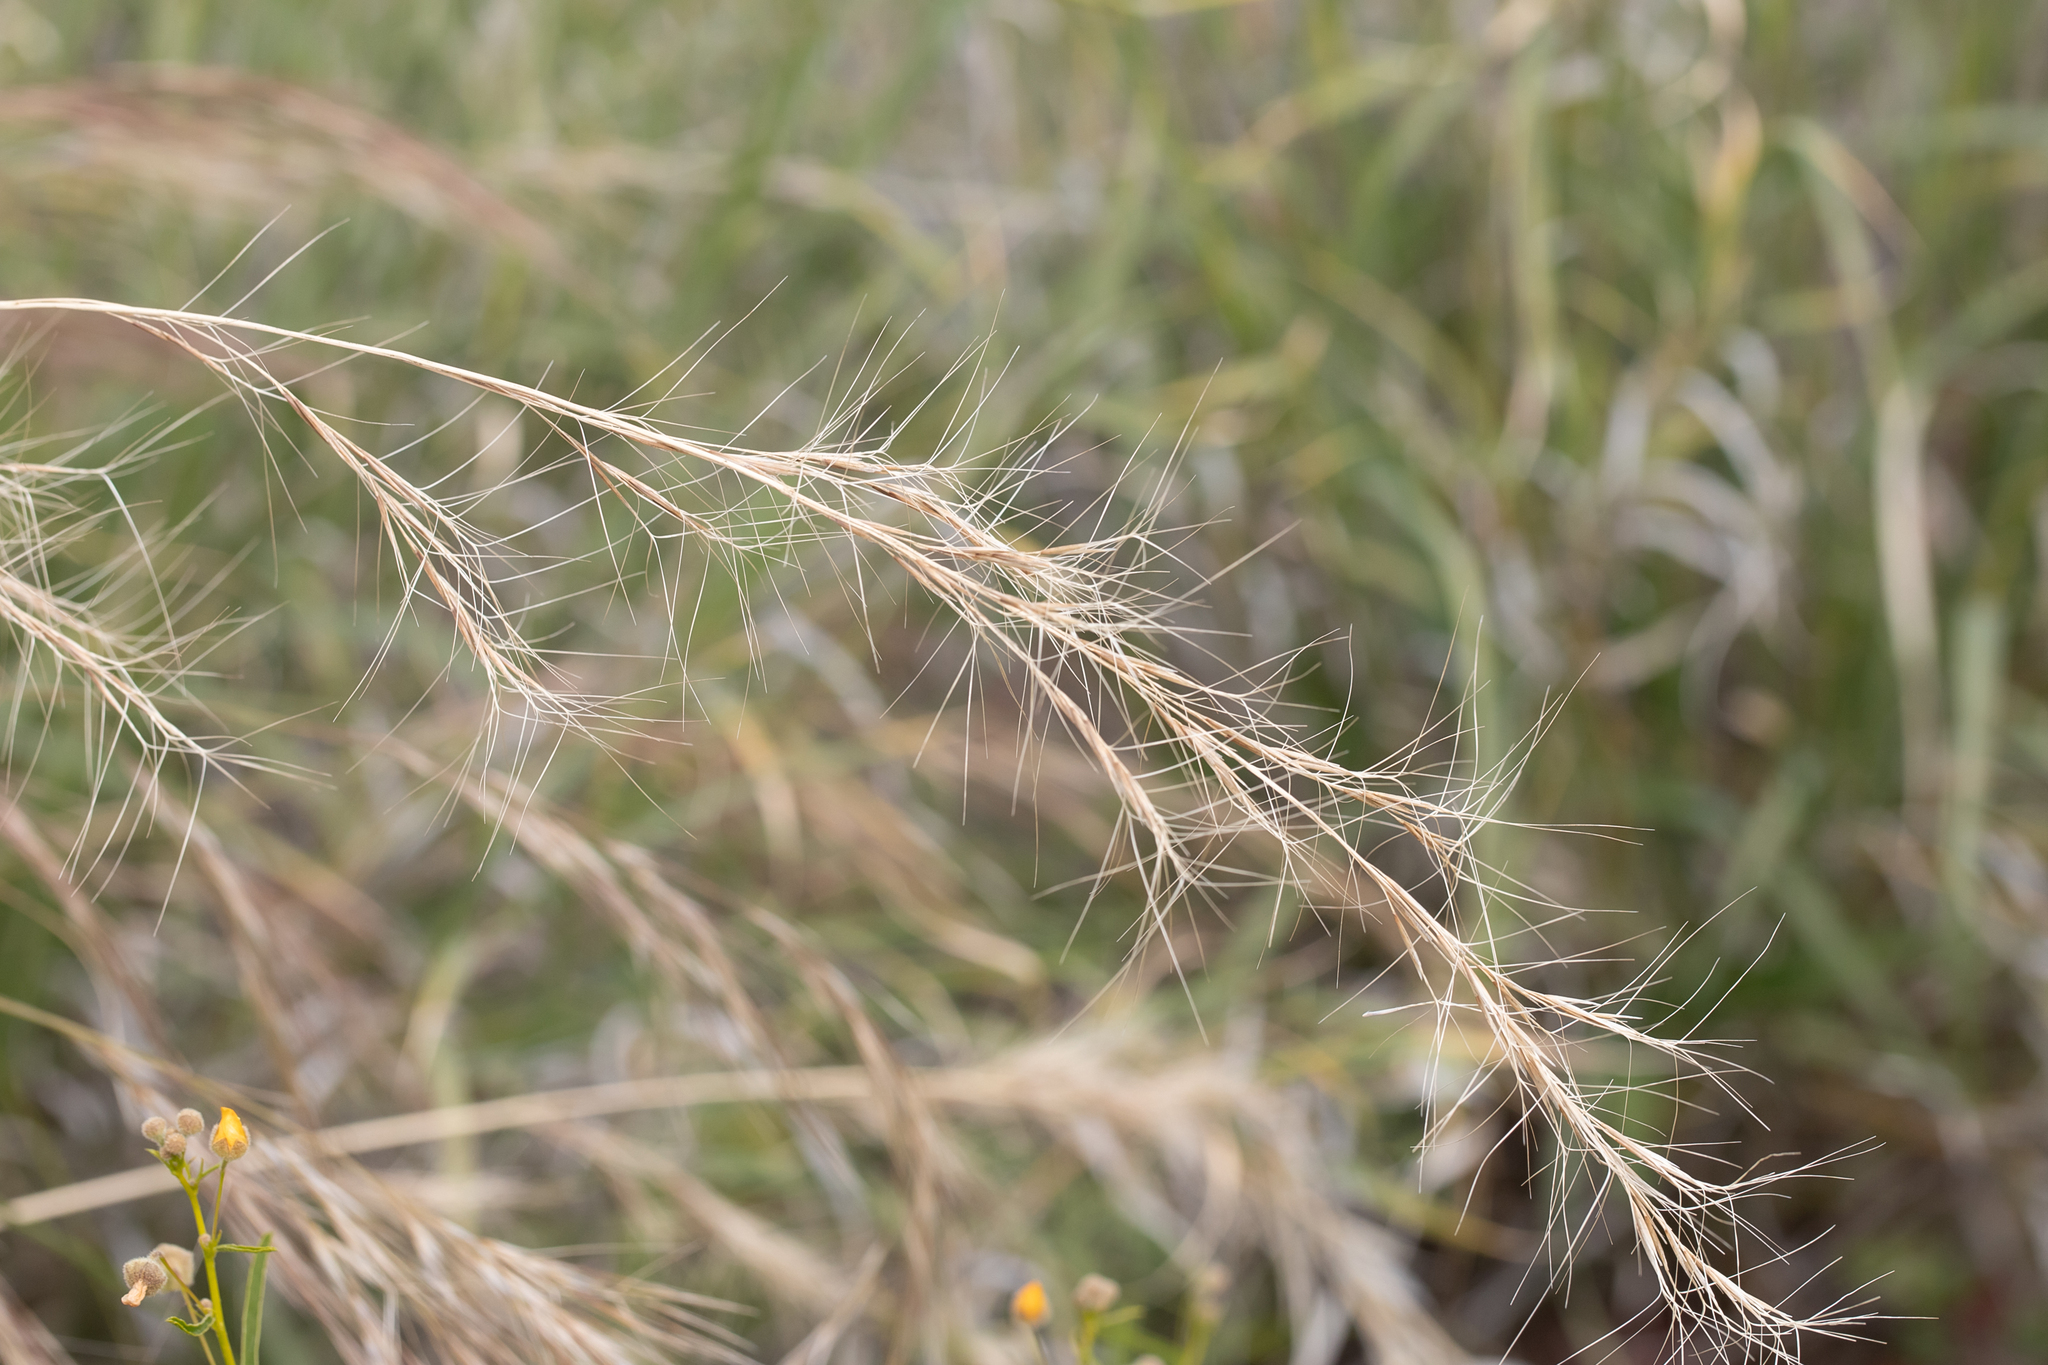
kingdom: Plantae
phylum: Tracheophyta
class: Liliopsida
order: Poales
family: Poaceae
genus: Aristida
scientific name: Aristida latifolia
